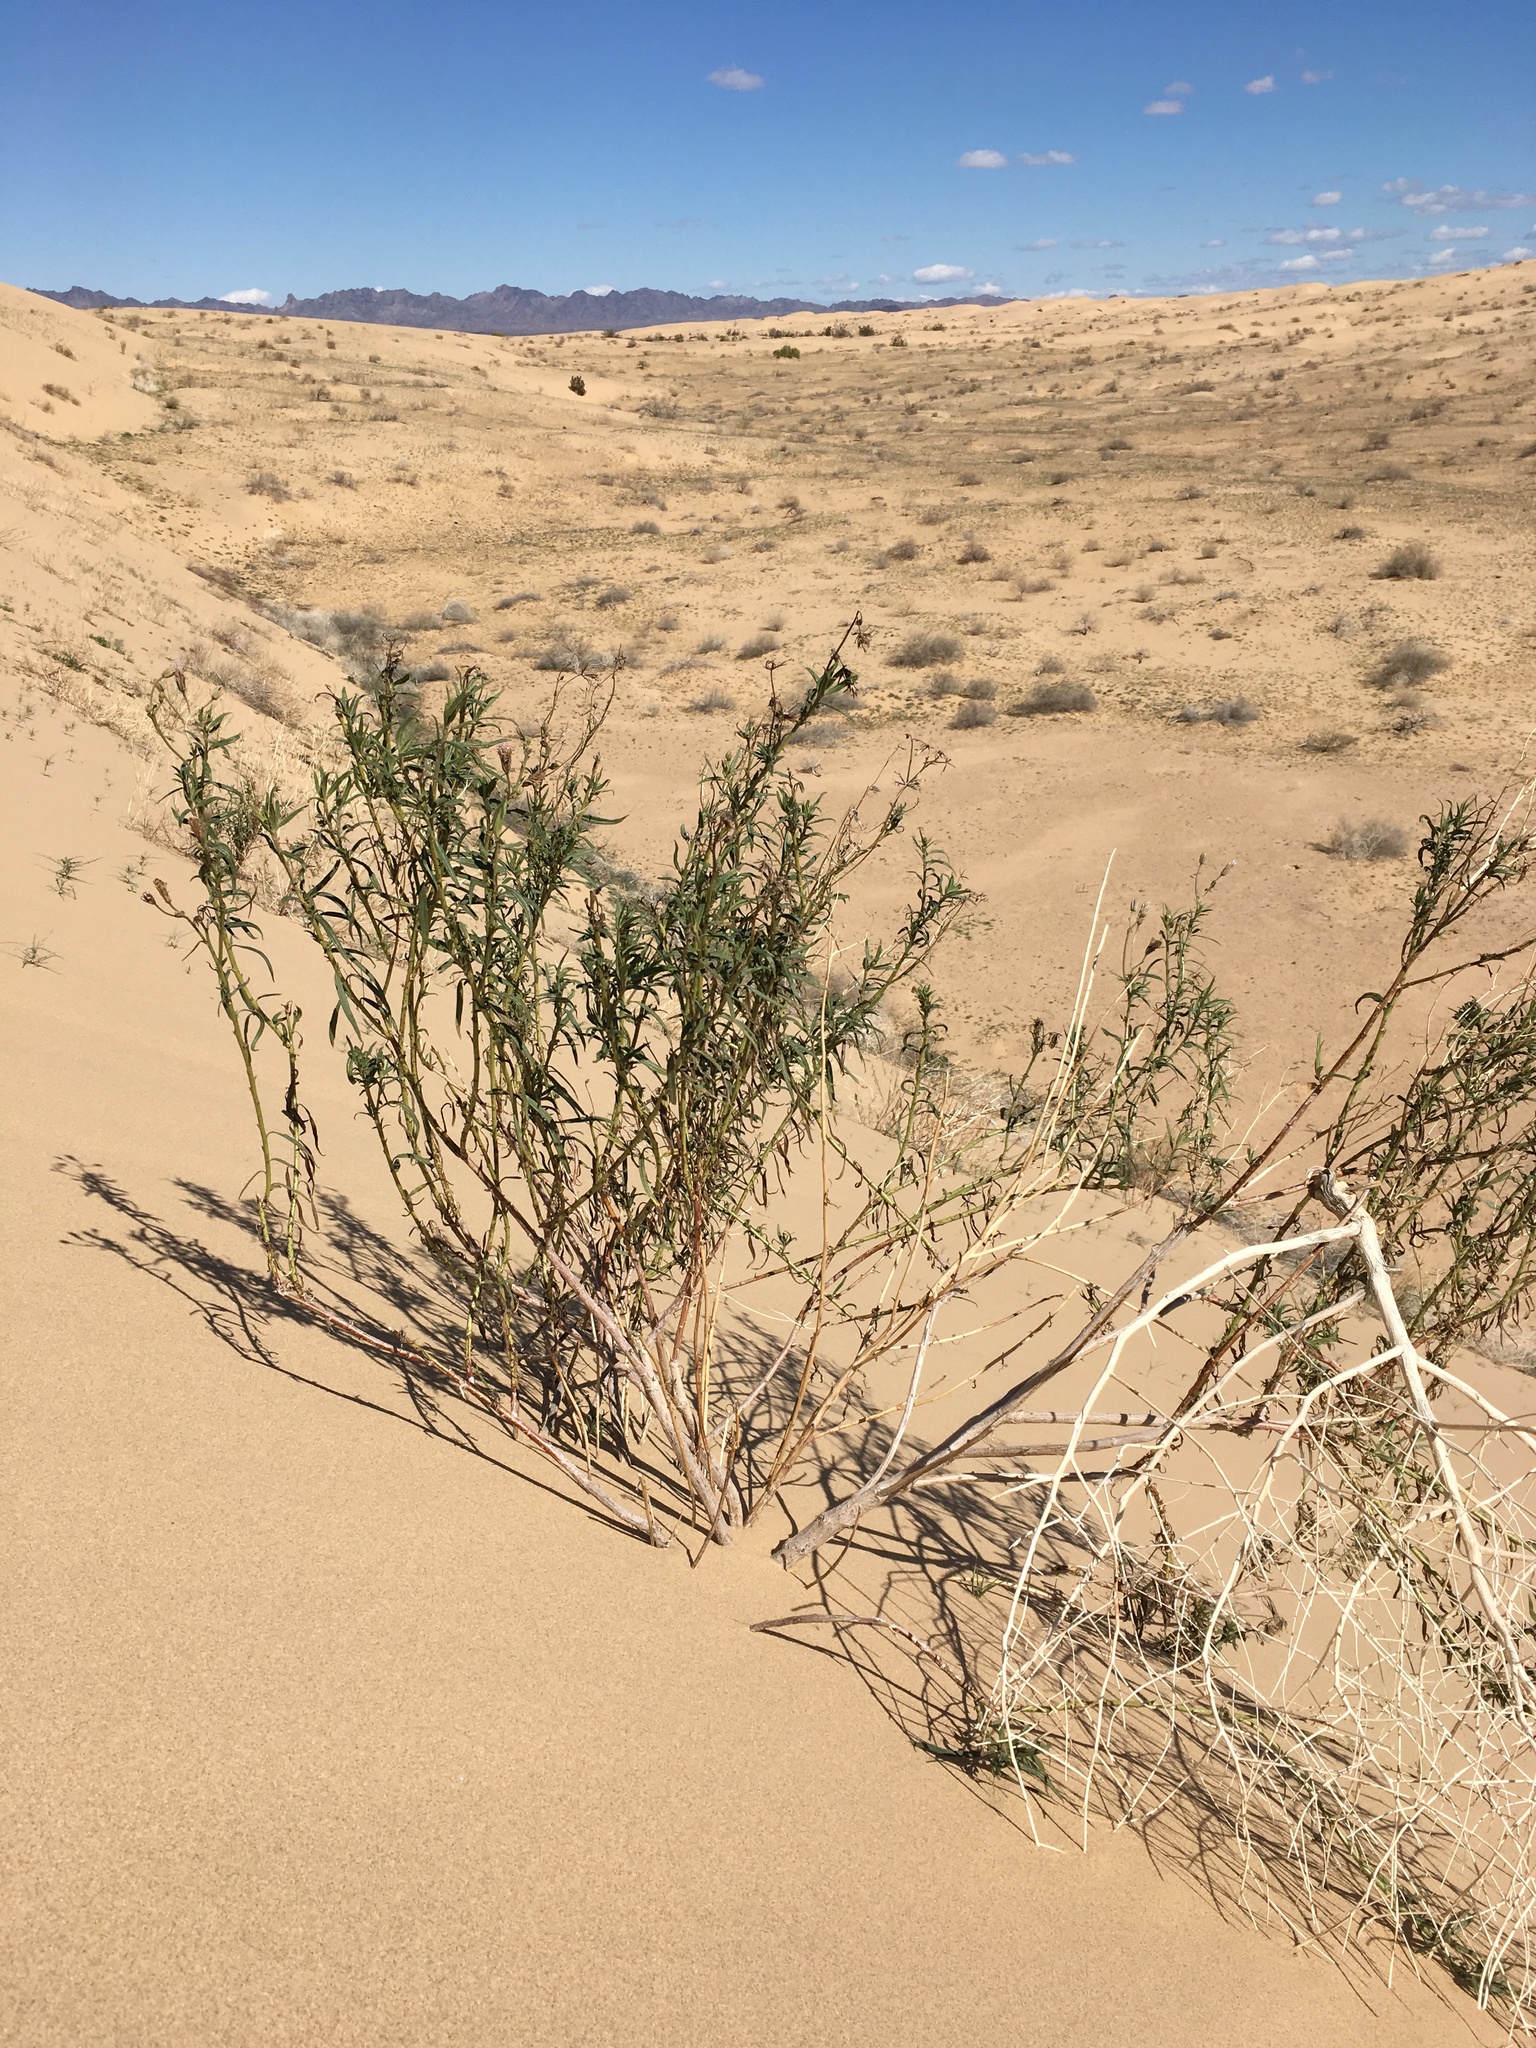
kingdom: Plantae
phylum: Tracheophyta
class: Magnoliopsida
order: Asterales
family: Asteraceae
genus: Palafoxia
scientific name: Palafoxia arida
